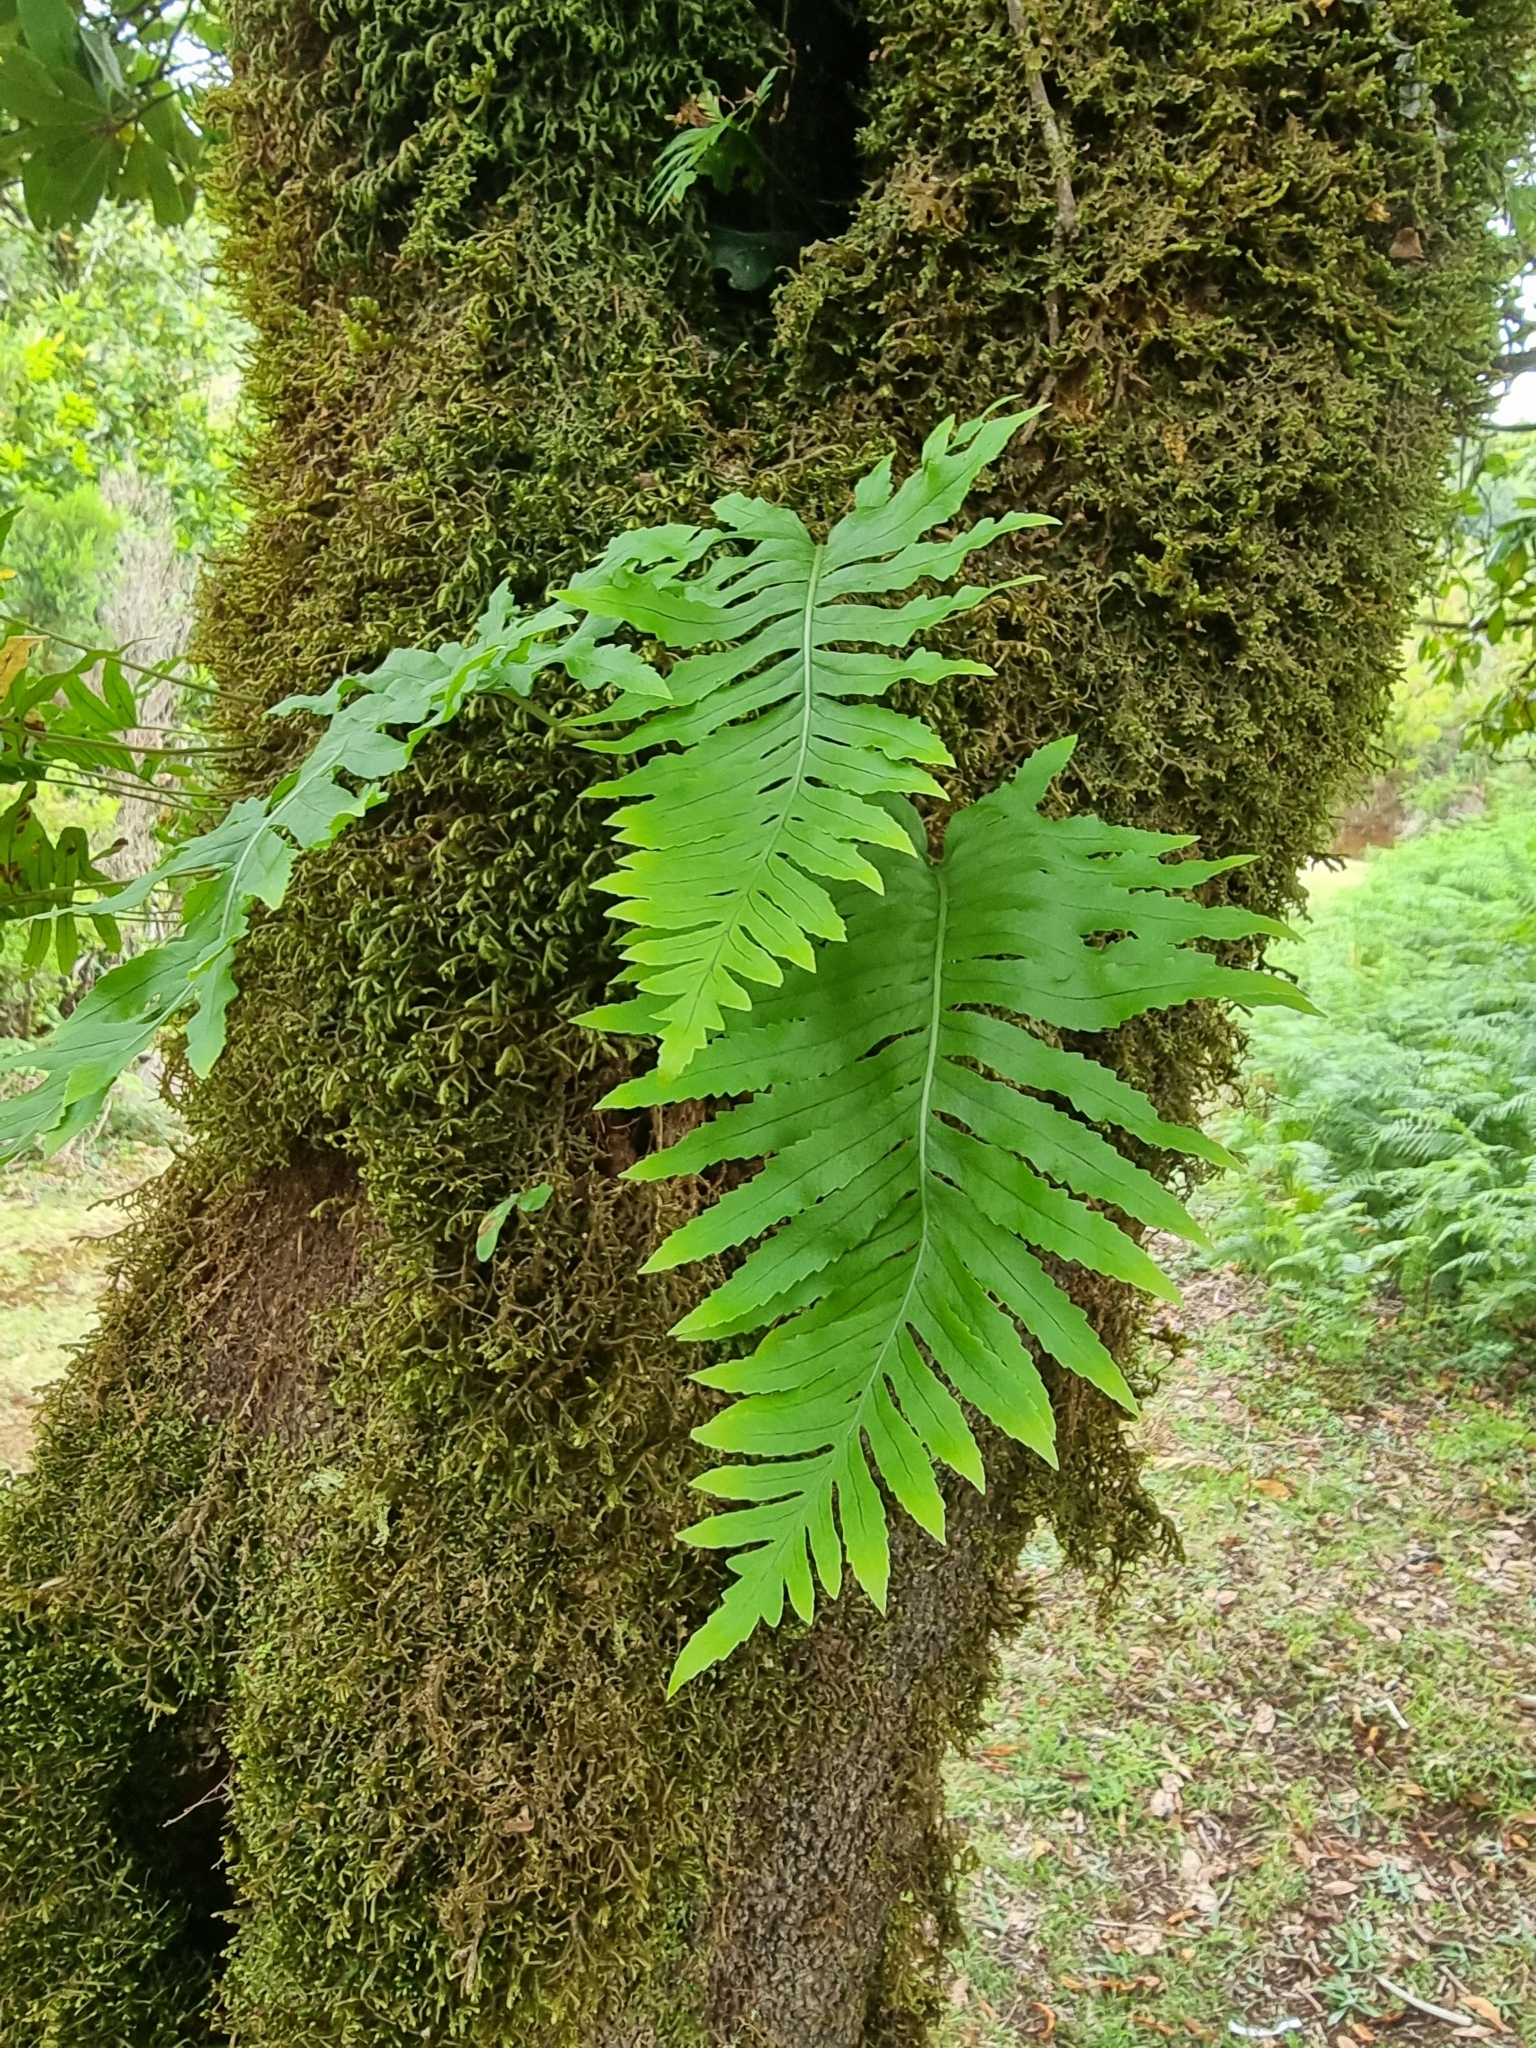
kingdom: Plantae
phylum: Tracheophyta
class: Polypodiopsida
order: Polypodiales
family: Polypodiaceae
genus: Polypodium
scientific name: Polypodium macaronesicum
